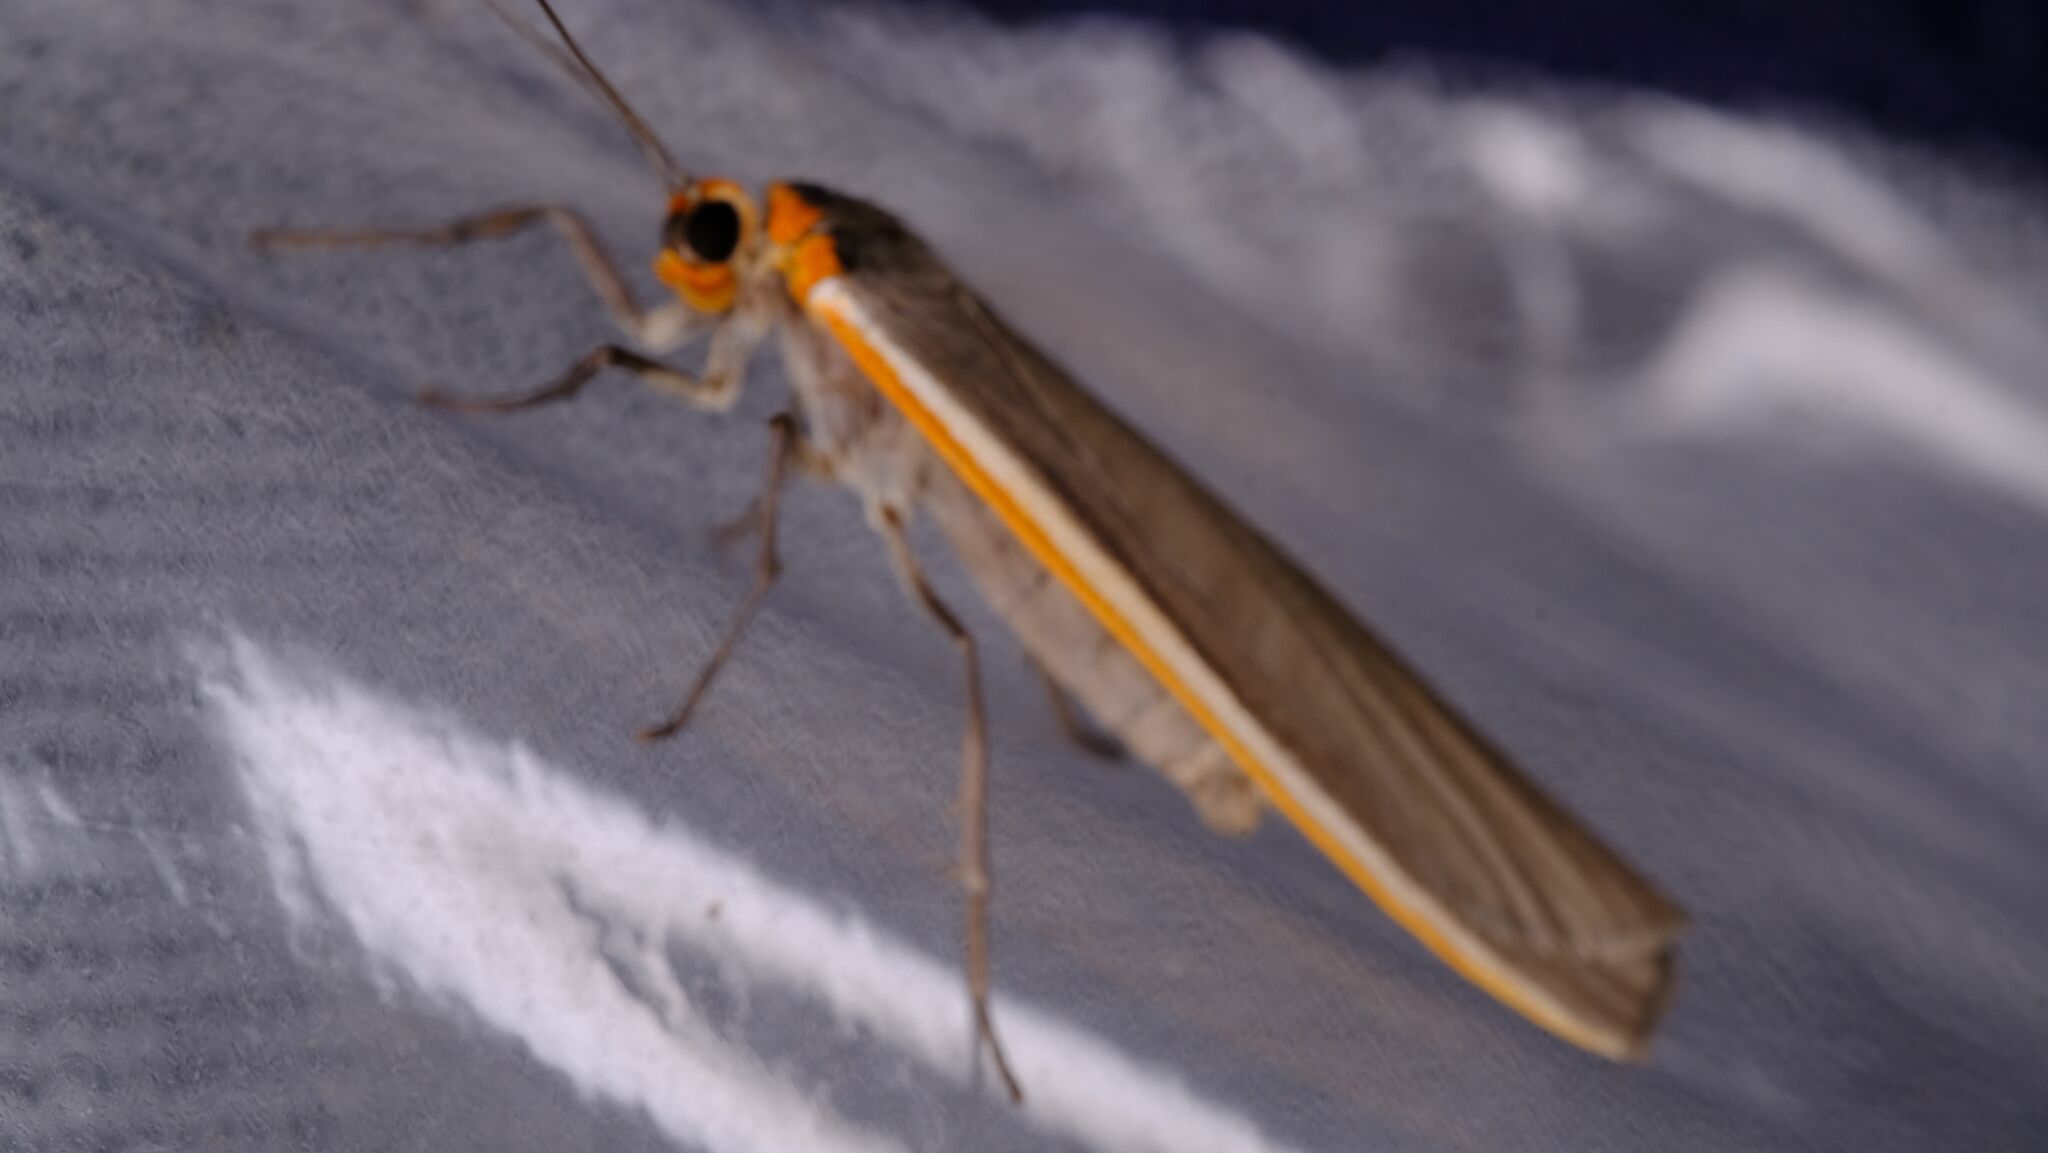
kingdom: Animalia
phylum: Arthropoda
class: Insecta
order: Lepidoptera
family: Erebidae
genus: Palaeosia
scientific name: Palaeosia bicosta
